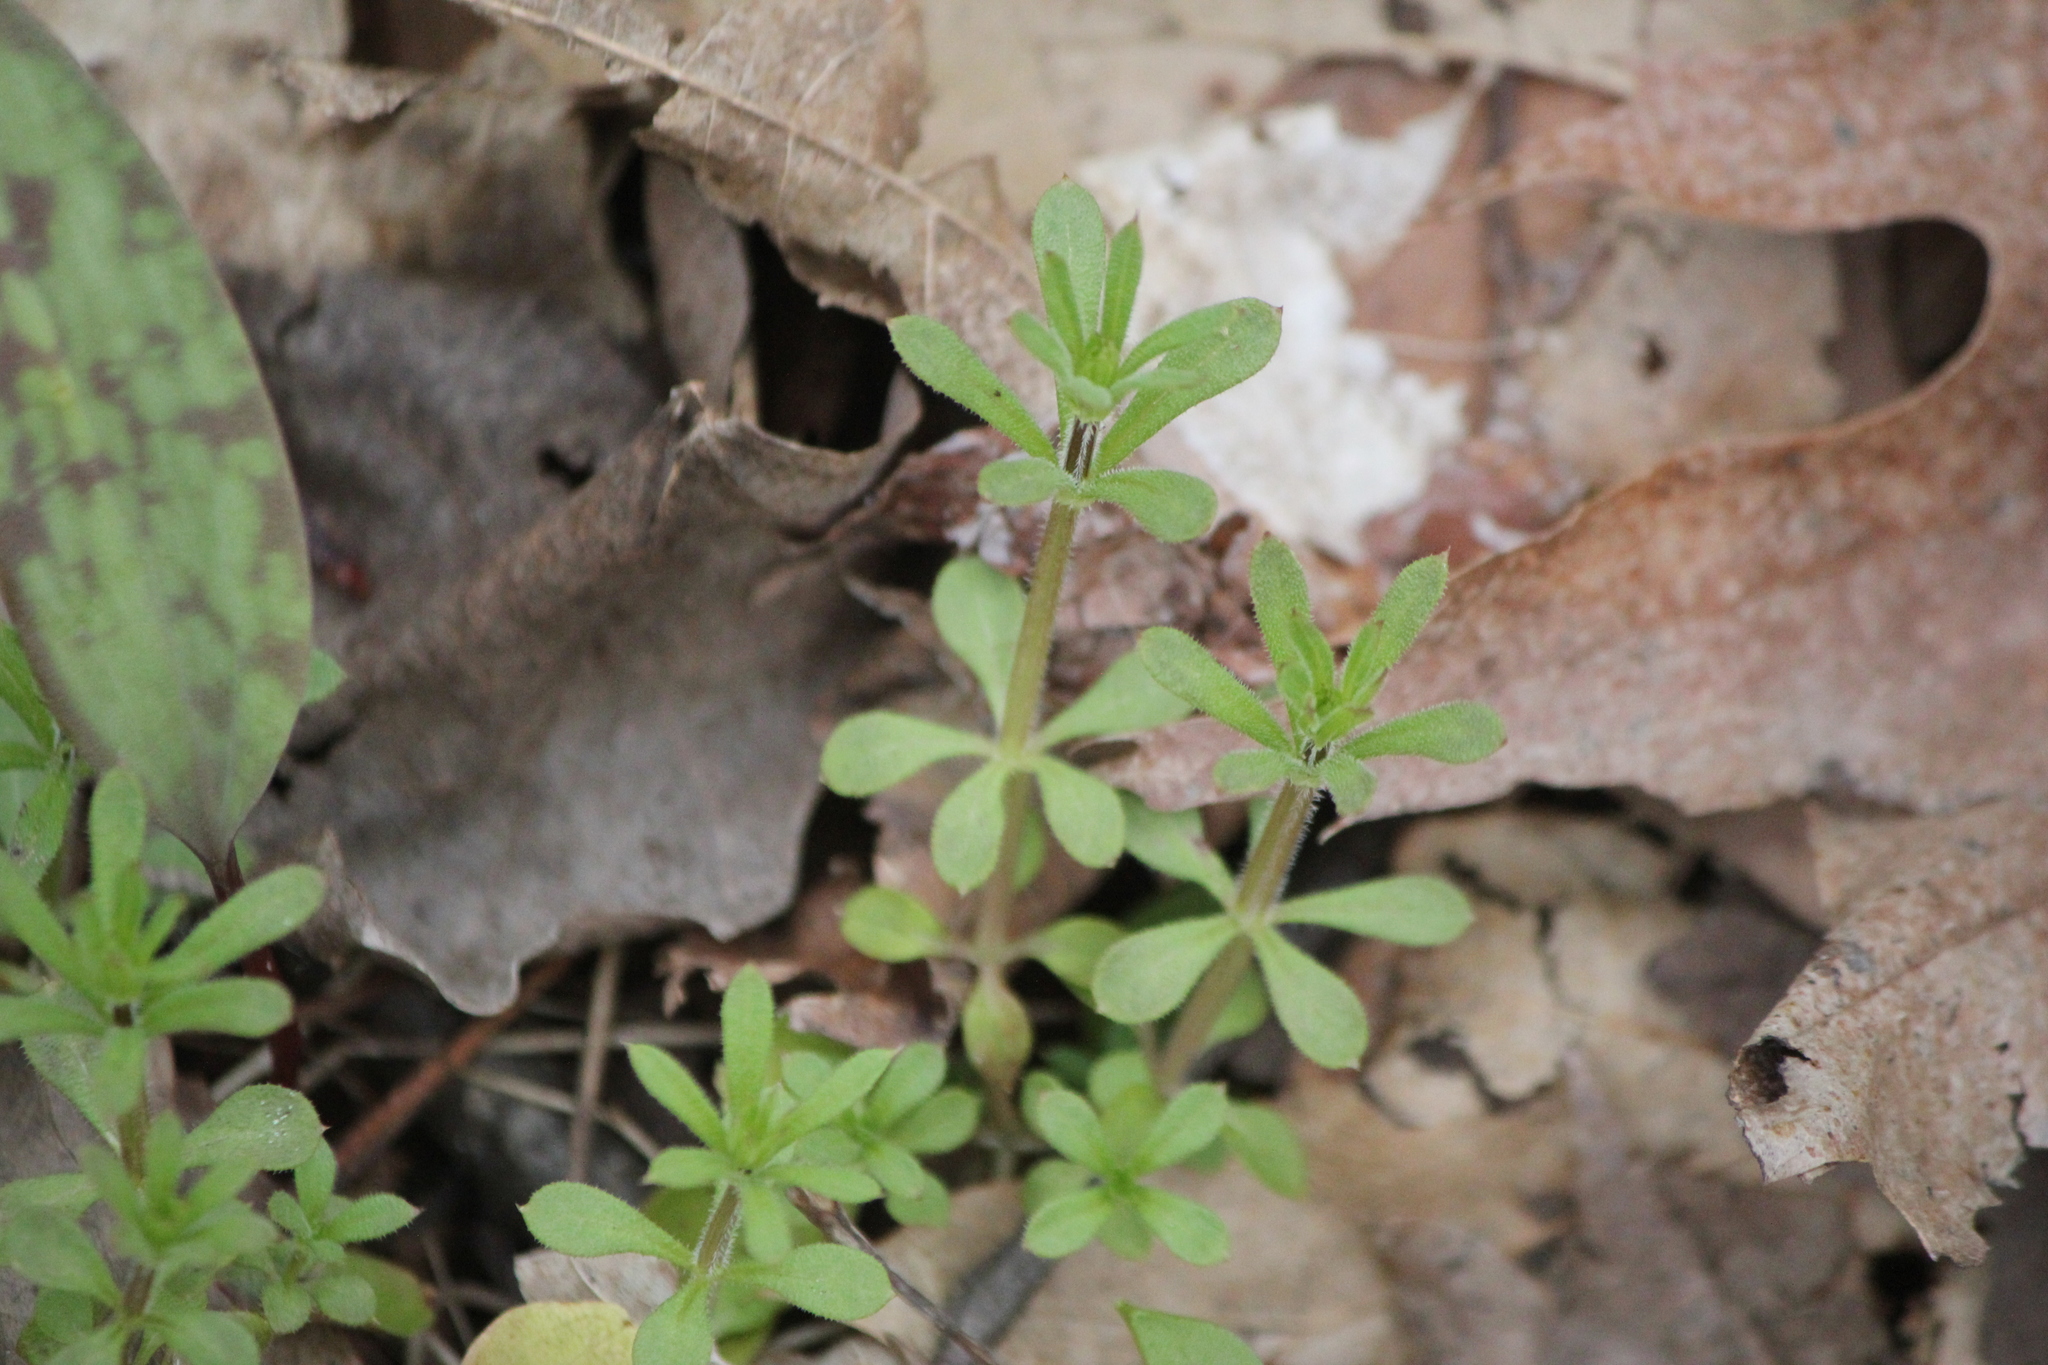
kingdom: Plantae
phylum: Tracheophyta
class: Magnoliopsida
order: Gentianales
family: Rubiaceae
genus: Galium
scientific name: Galium aparine
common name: Cleavers
